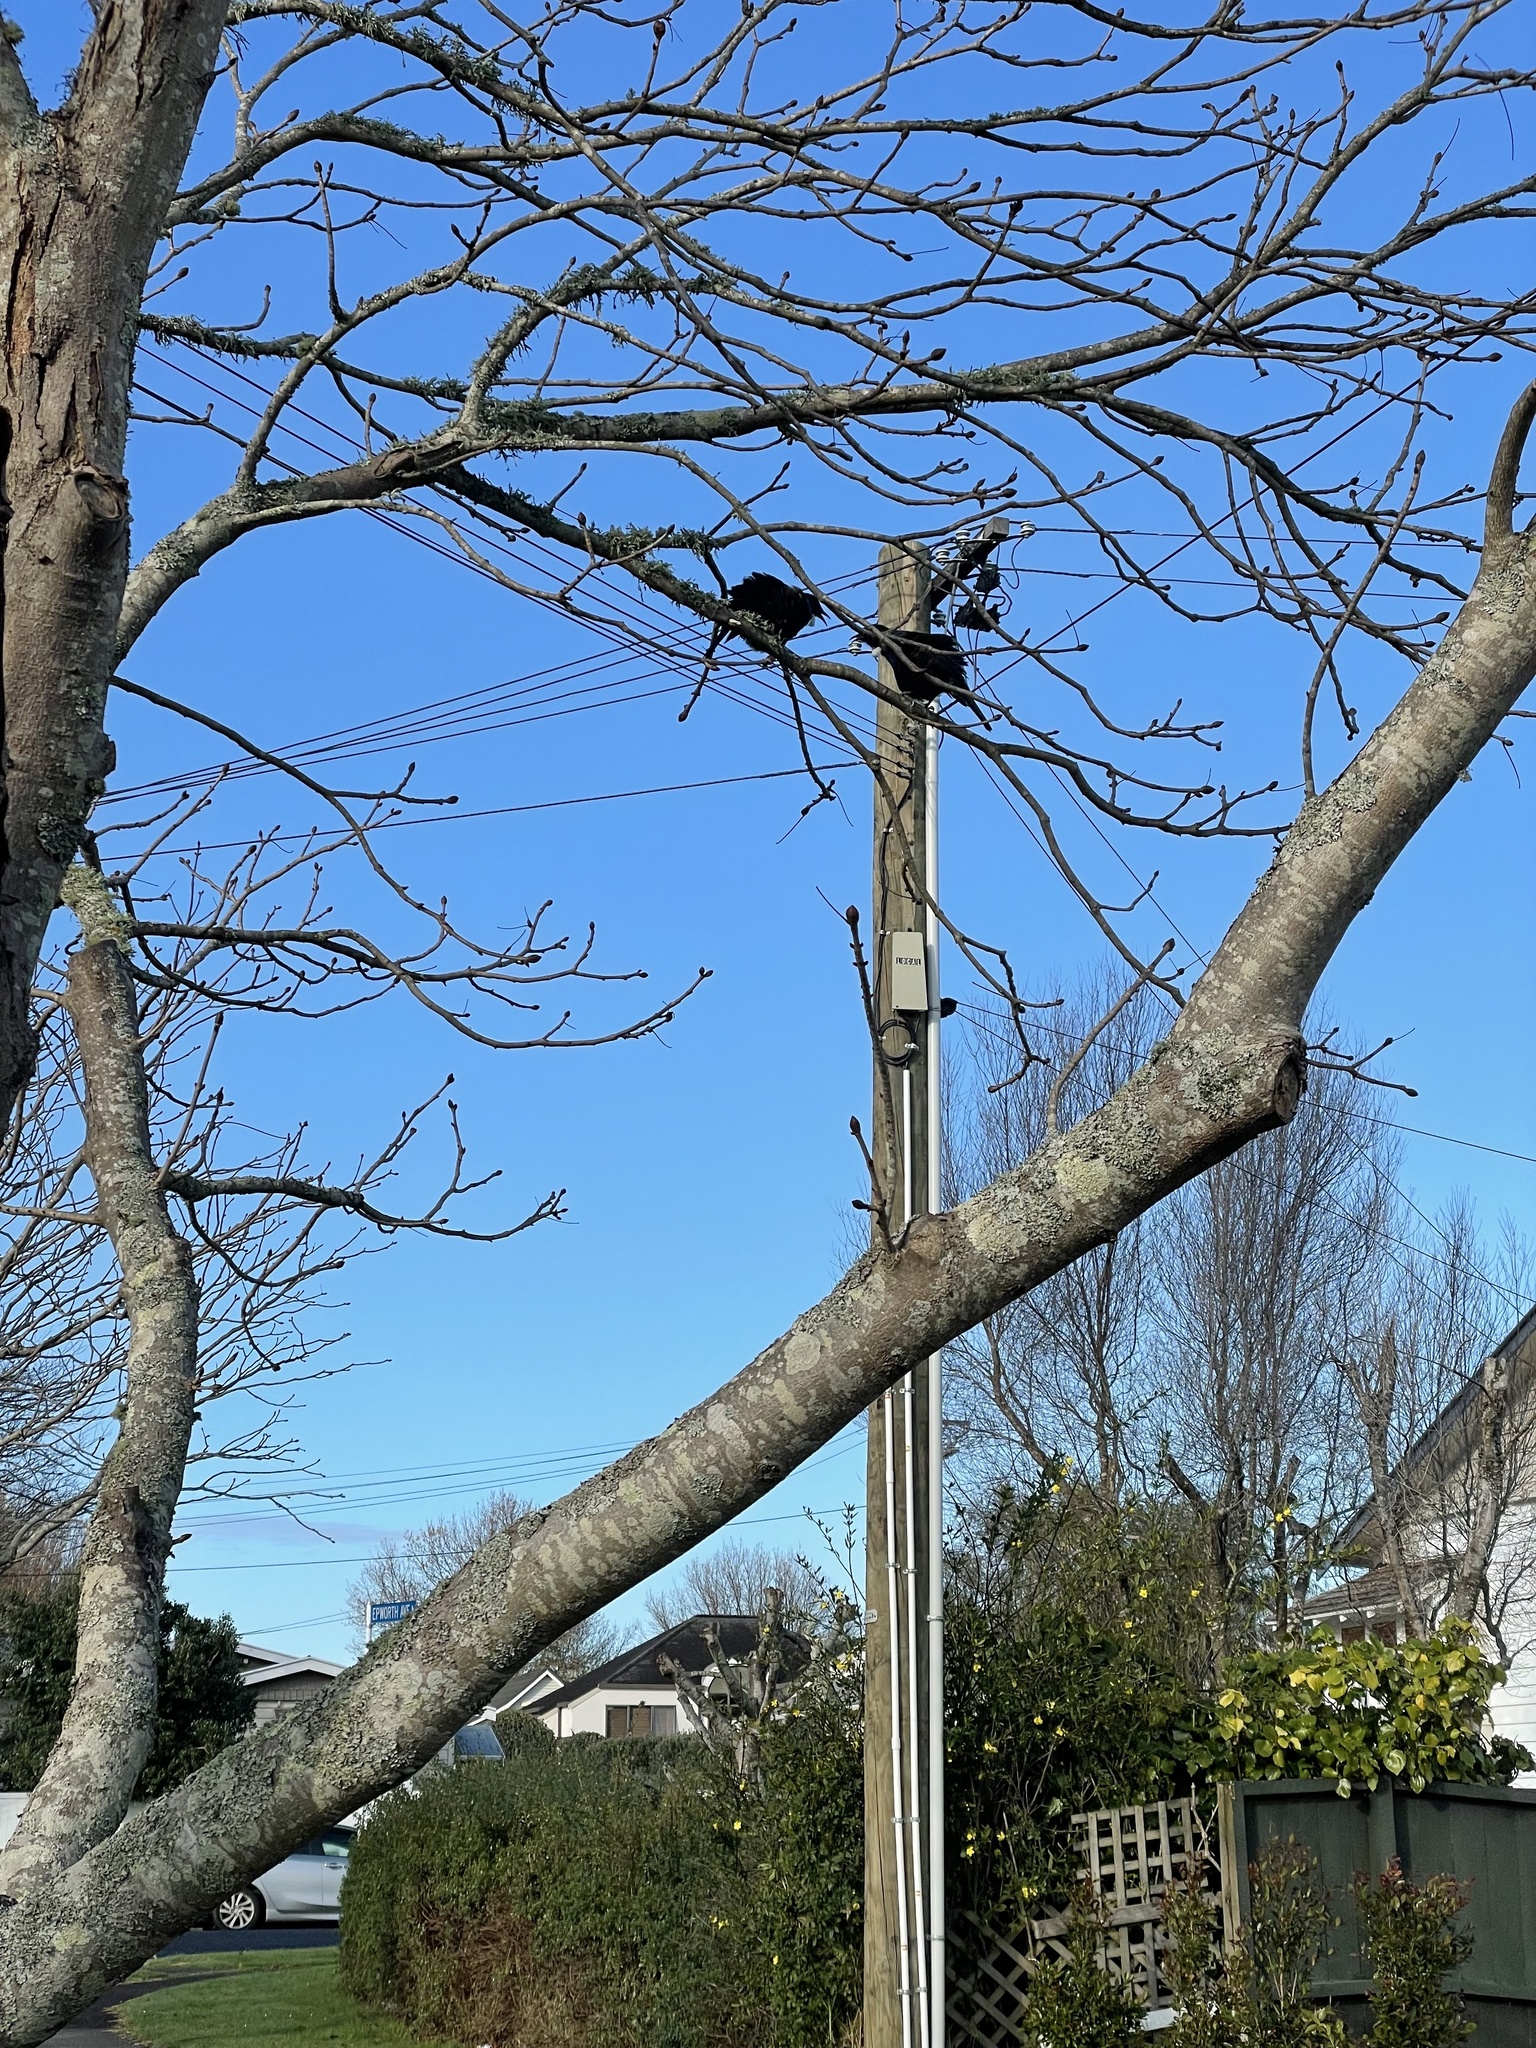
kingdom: Animalia
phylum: Chordata
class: Aves
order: Passeriformes
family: Meliphagidae
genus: Prosthemadera
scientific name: Prosthemadera novaeseelandiae
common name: Tui
